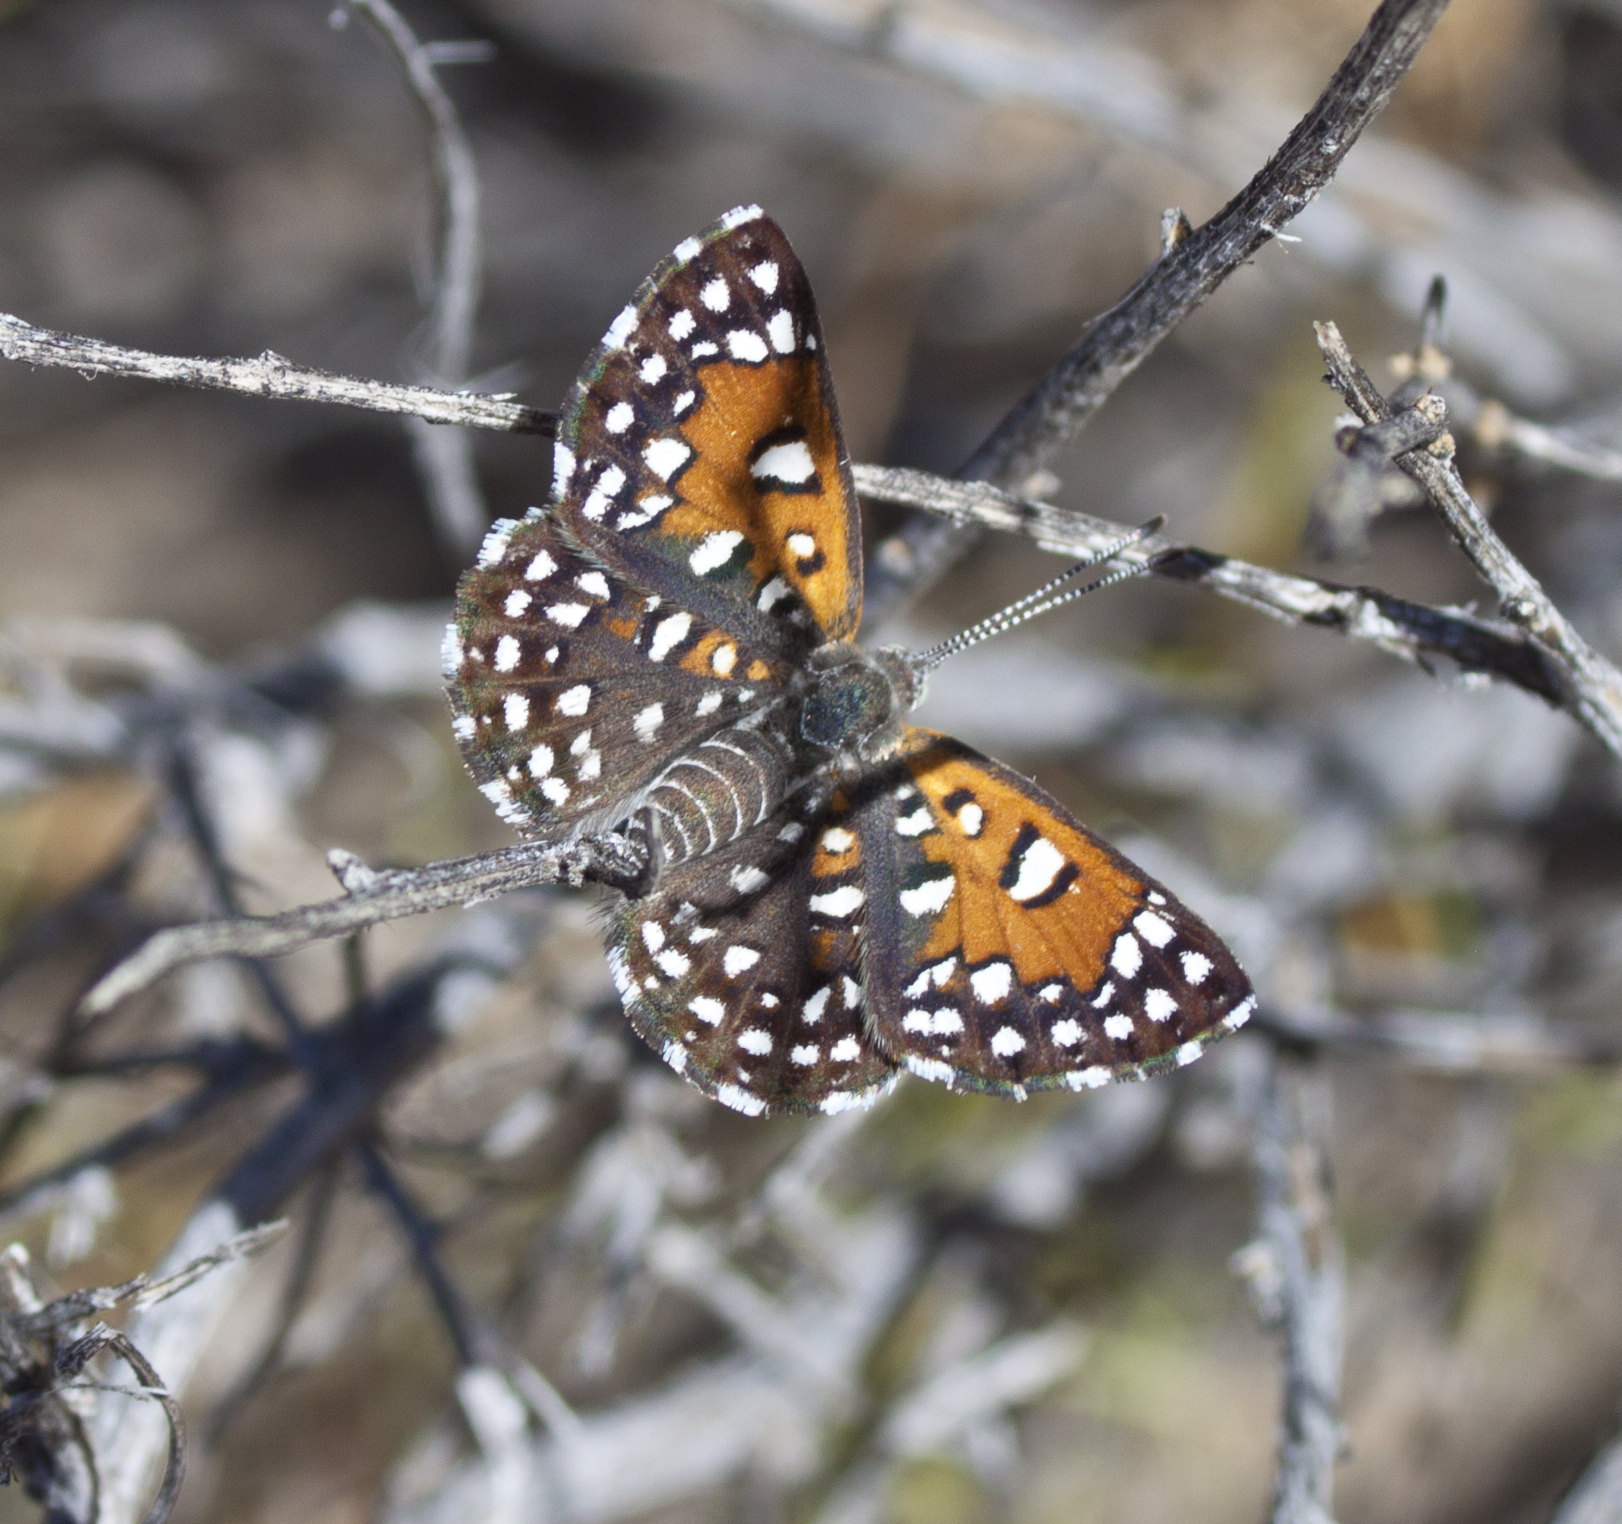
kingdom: Animalia
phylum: Arthropoda
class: Insecta
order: Lepidoptera
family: Riodinidae
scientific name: Riodinidae
